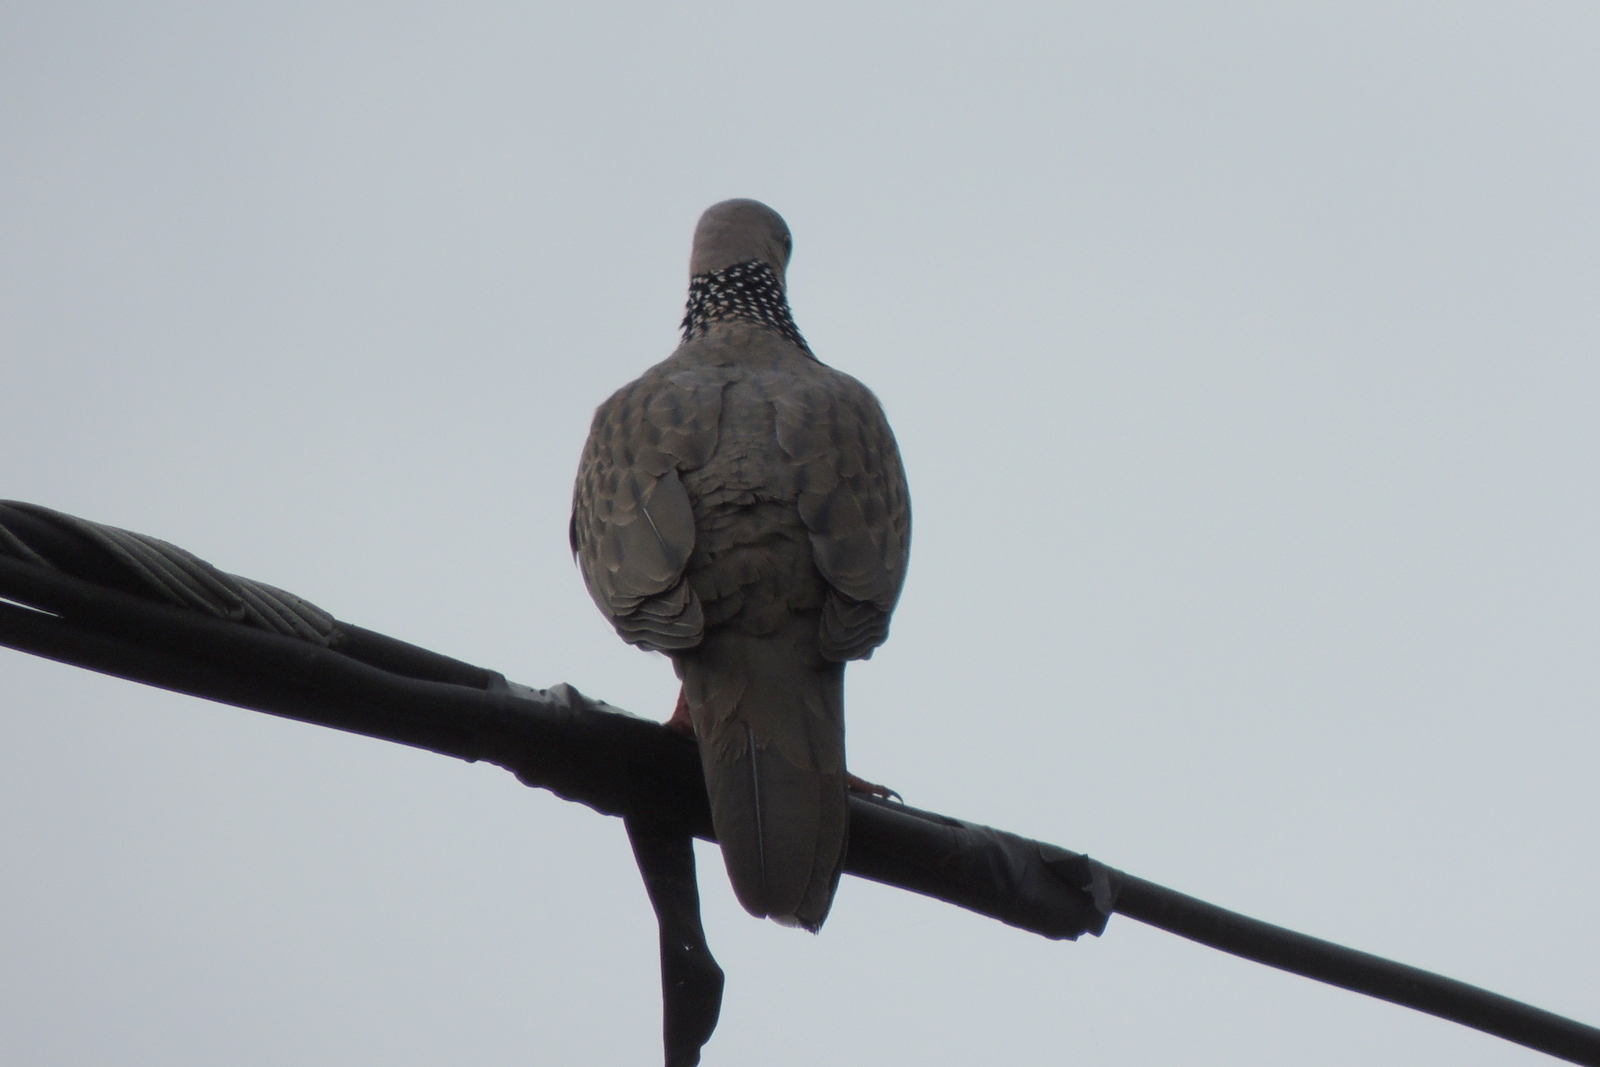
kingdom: Animalia
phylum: Chordata
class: Aves
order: Columbiformes
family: Columbidae
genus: Spilopelia
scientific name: Spilopelia chinensis
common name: Spotted dove
